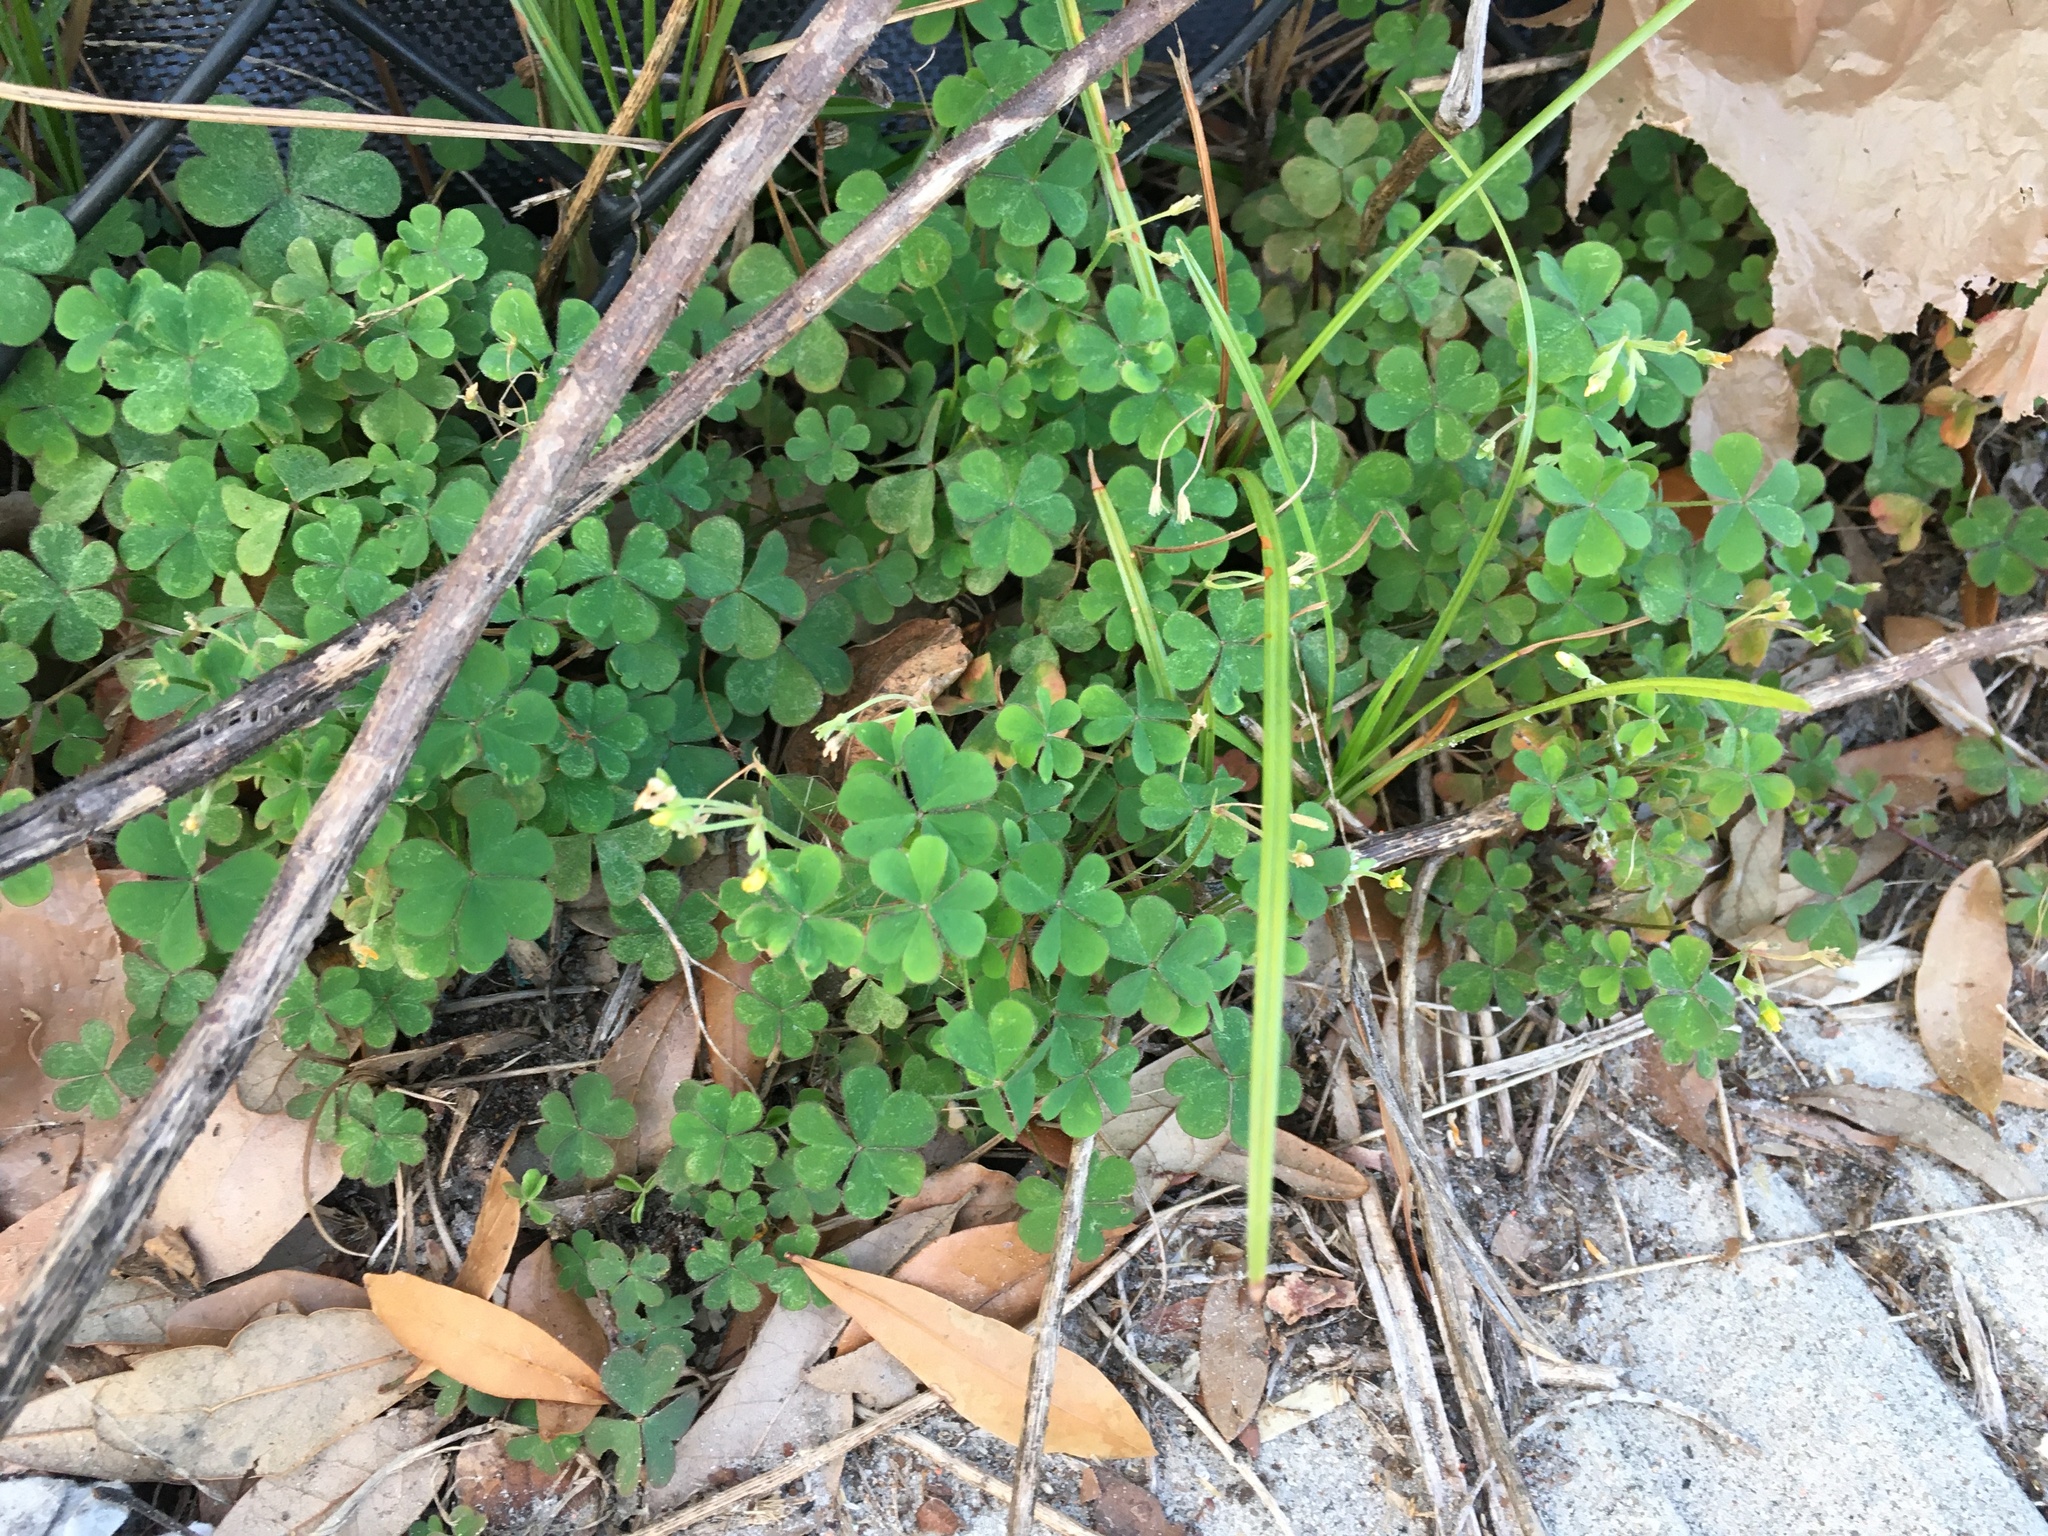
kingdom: Plantae
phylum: Tracheophyta
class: Magnoliopsida
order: Oxalidales
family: Oxalidaceae
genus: Oxalis
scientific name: Oxalis corniculata
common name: Procumbent yellow-sorrel
